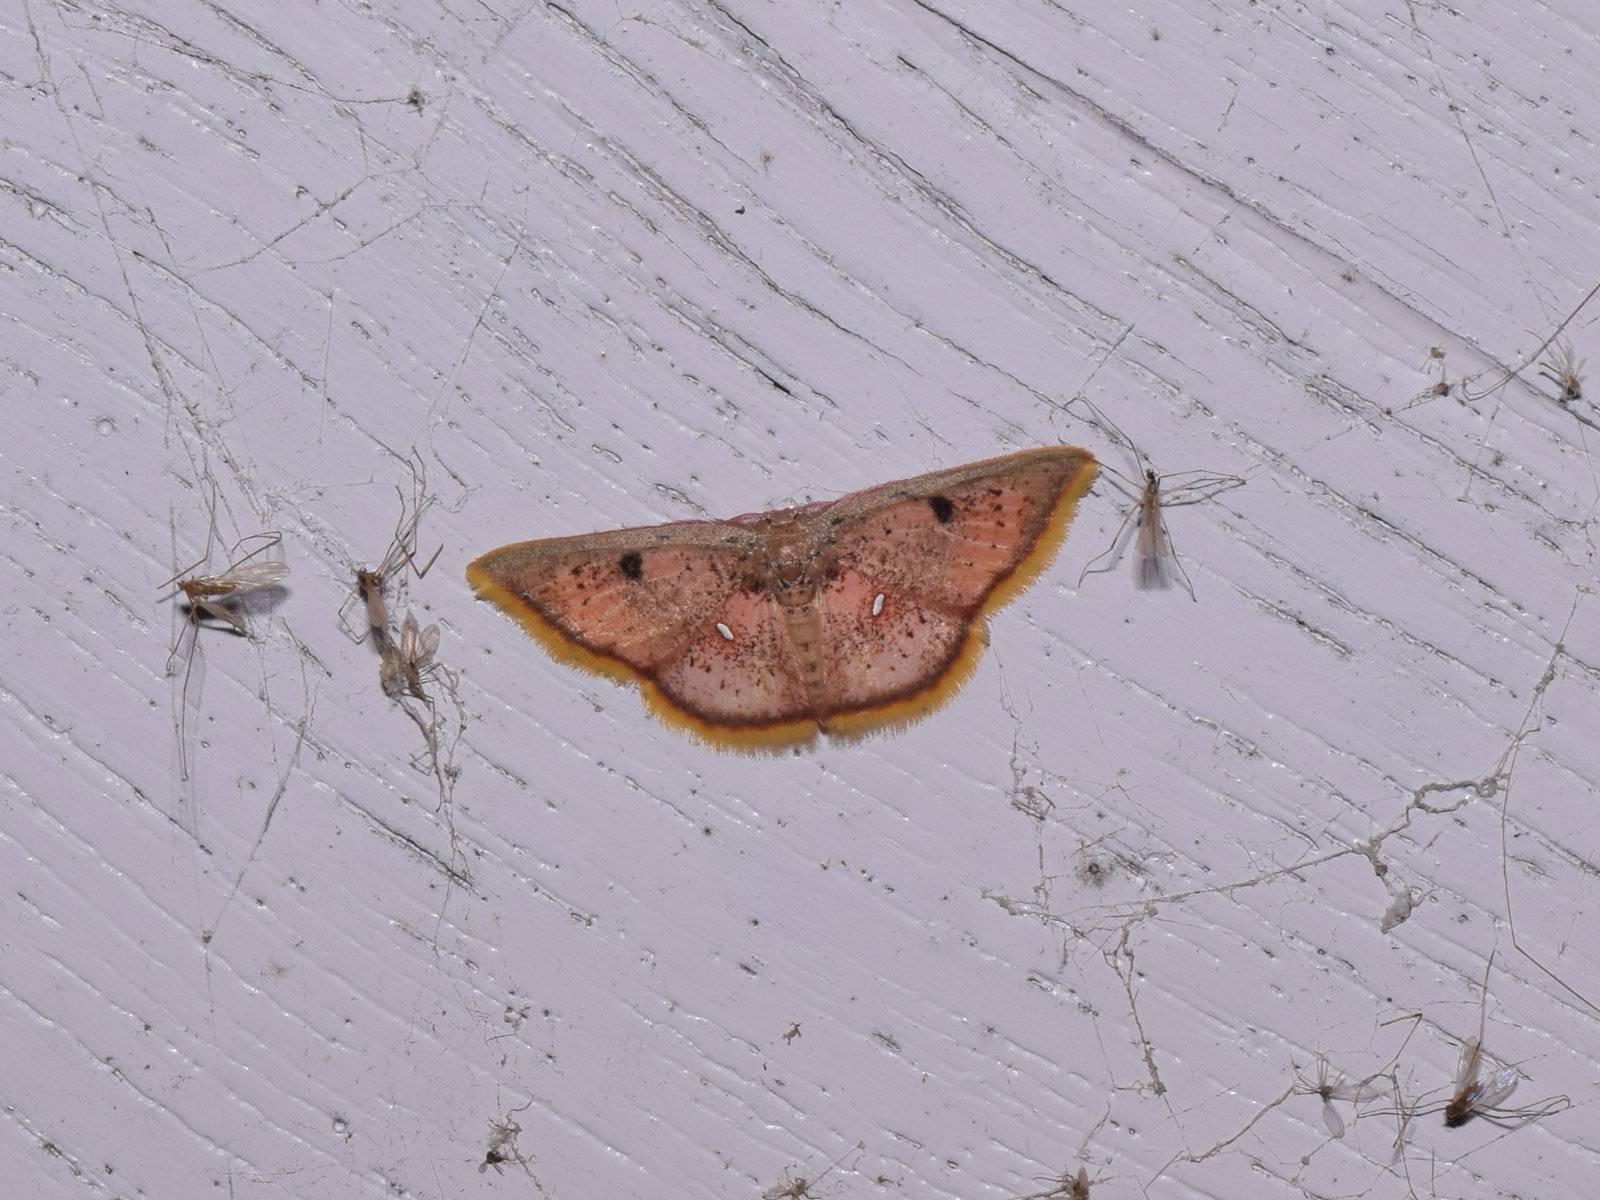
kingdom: Animalia
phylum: Arthropoda
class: Insecta
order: Lepidoptera
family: Geometridae
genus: Chrysocraspeda
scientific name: Chrysocraspeda conspicuaria
